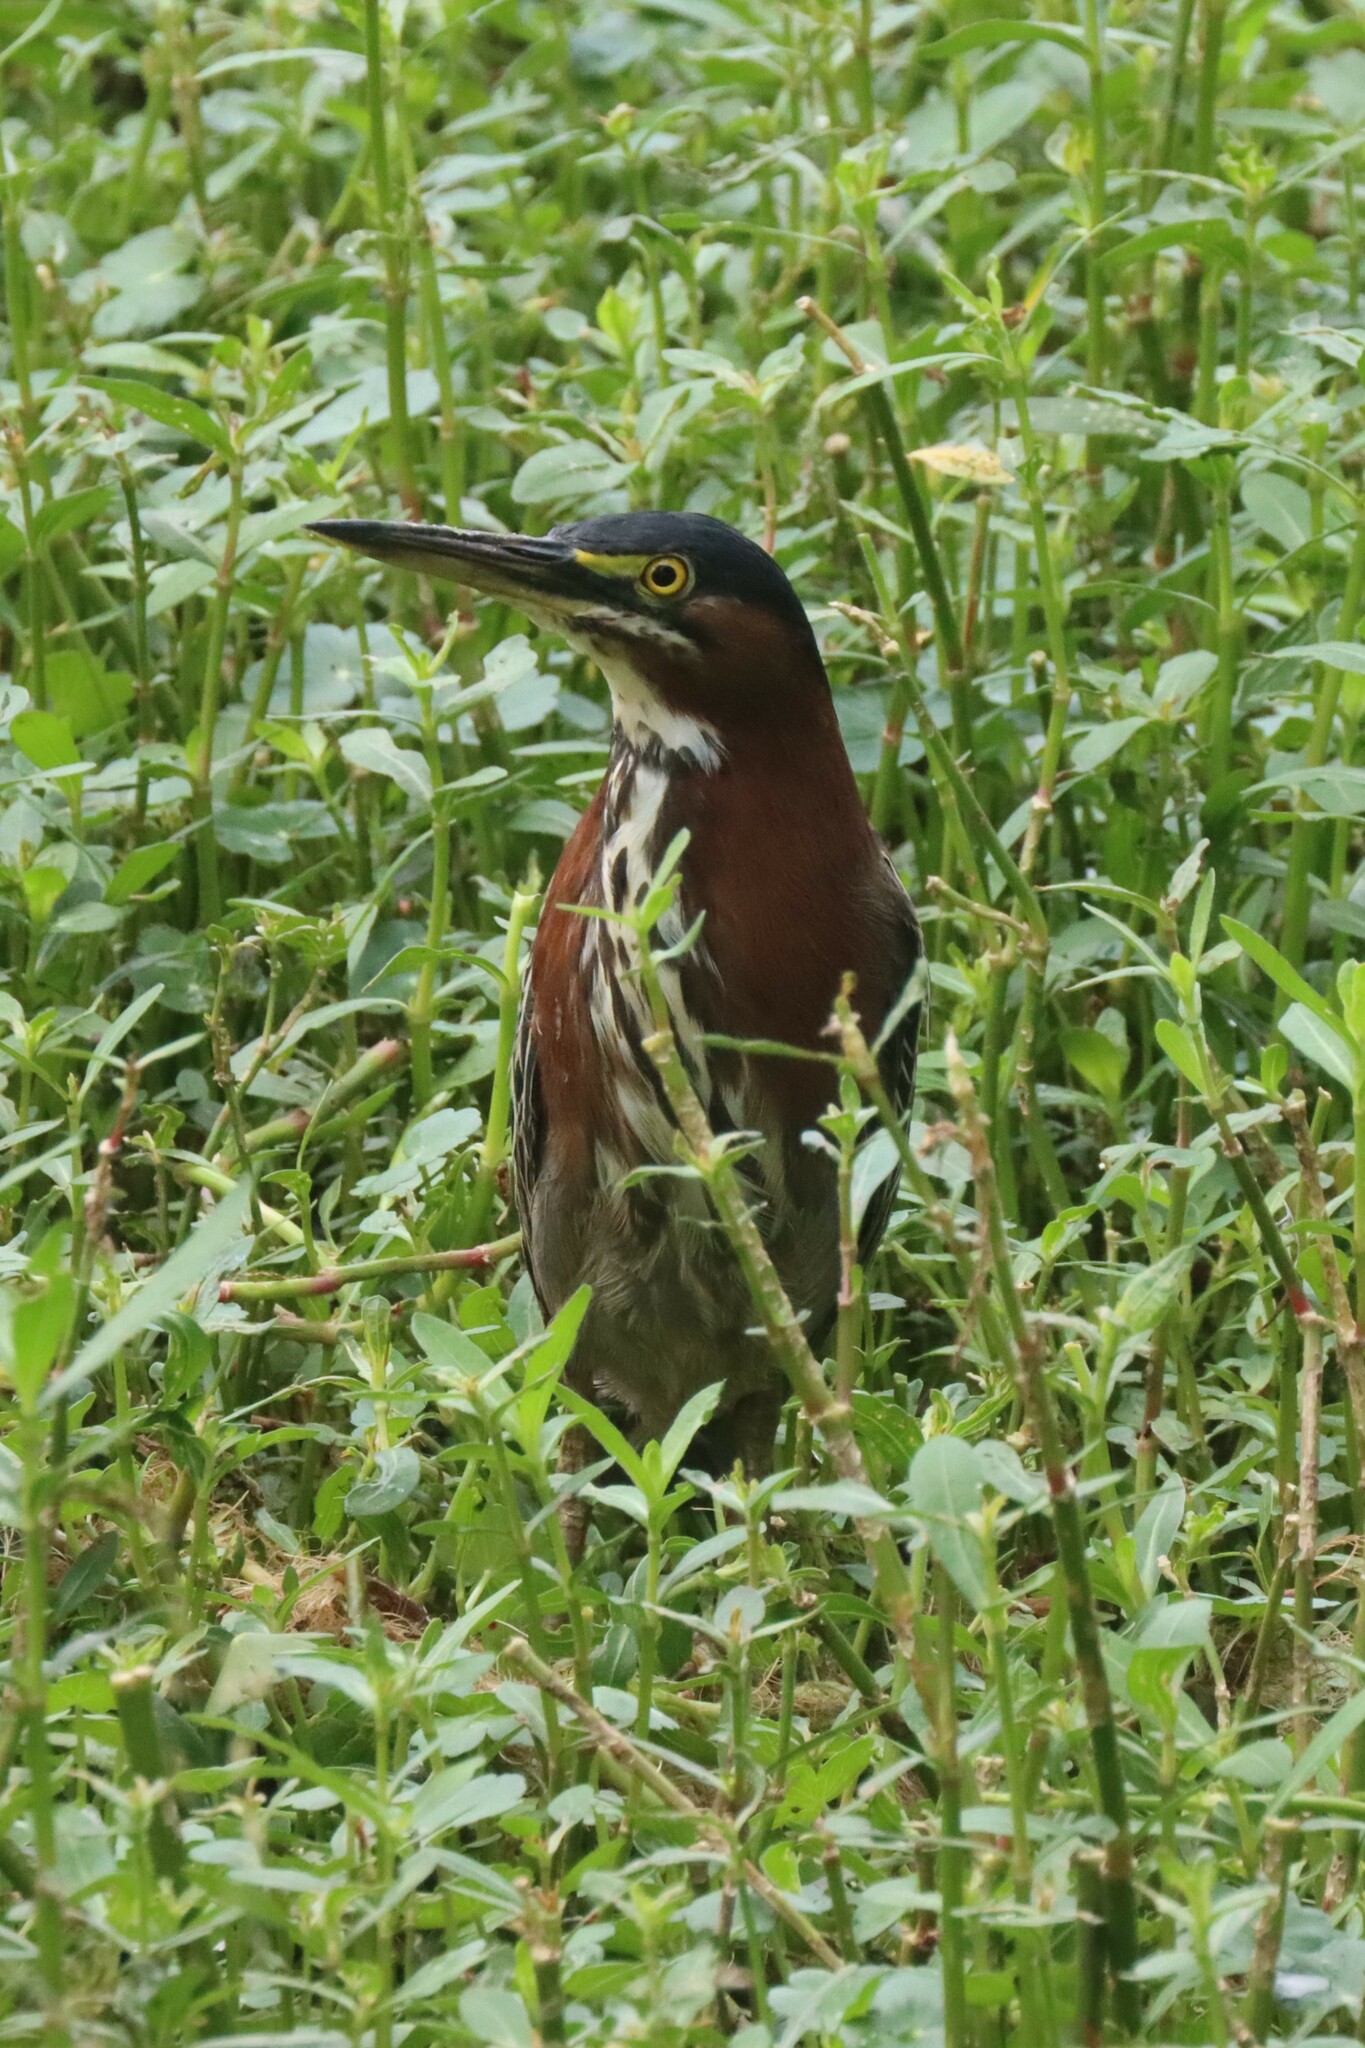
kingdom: Animalia
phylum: Chordata
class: Aves
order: Pelecaniformes
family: Ardeidae
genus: Butorides
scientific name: Butorides virescens
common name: Green heron
